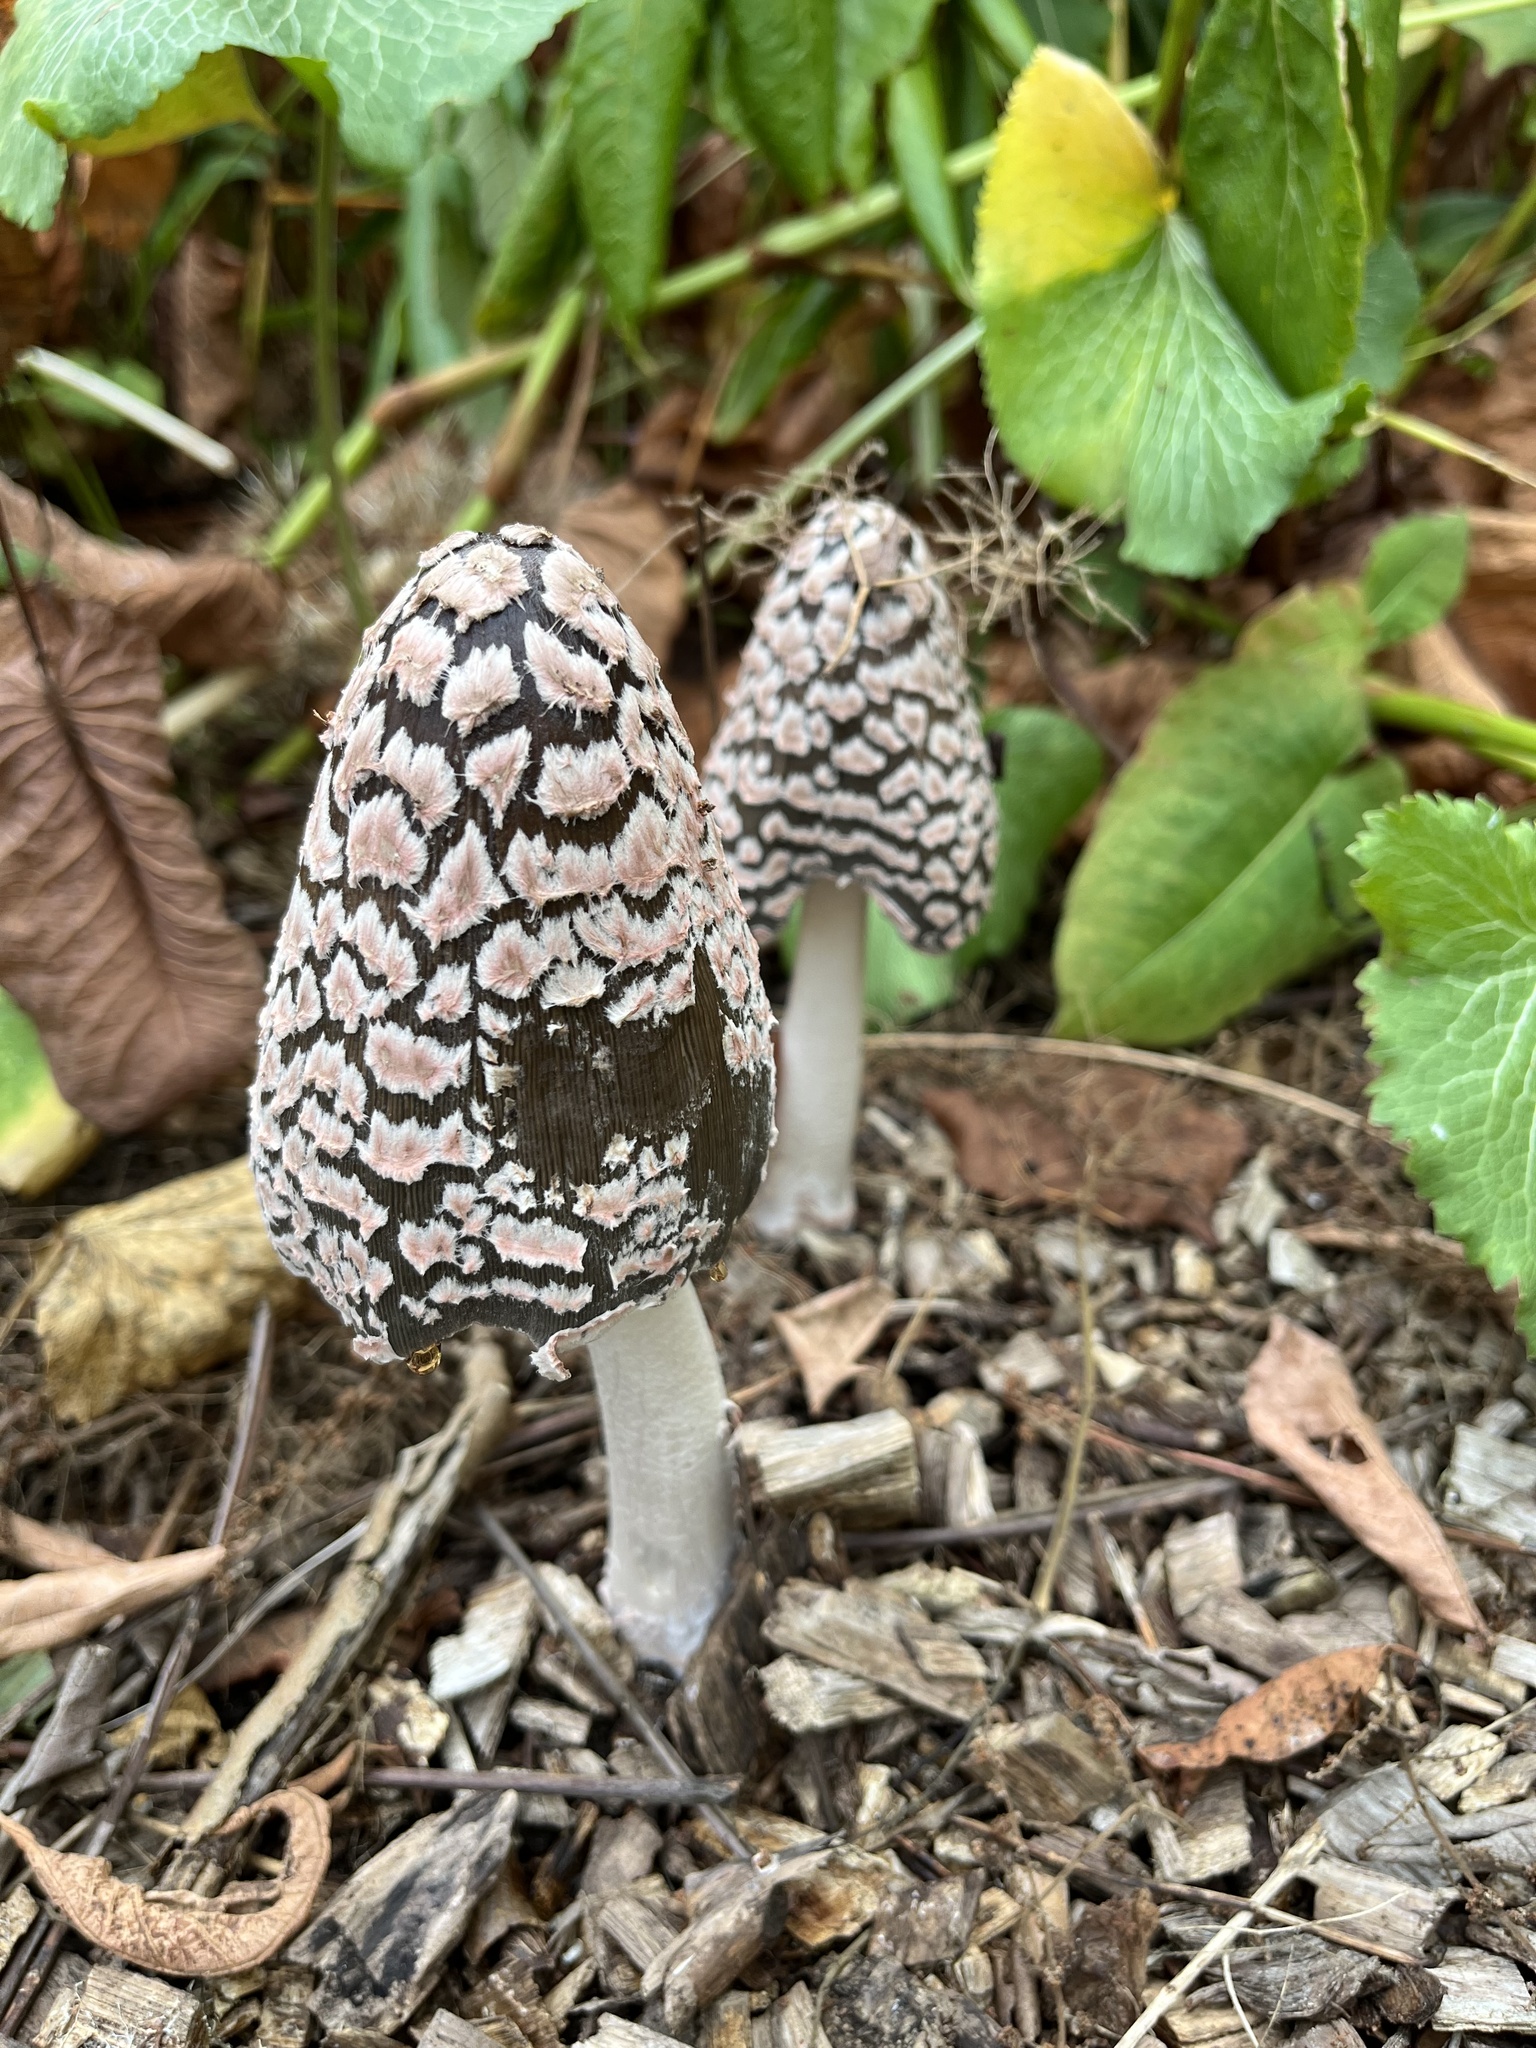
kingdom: Fungi
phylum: Basidiomycota
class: Agaricomycetes
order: Agaricales
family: Psathyrellaceae
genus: Coprinopsis
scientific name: Coprinopsis picacea
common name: Magpie inkcap
